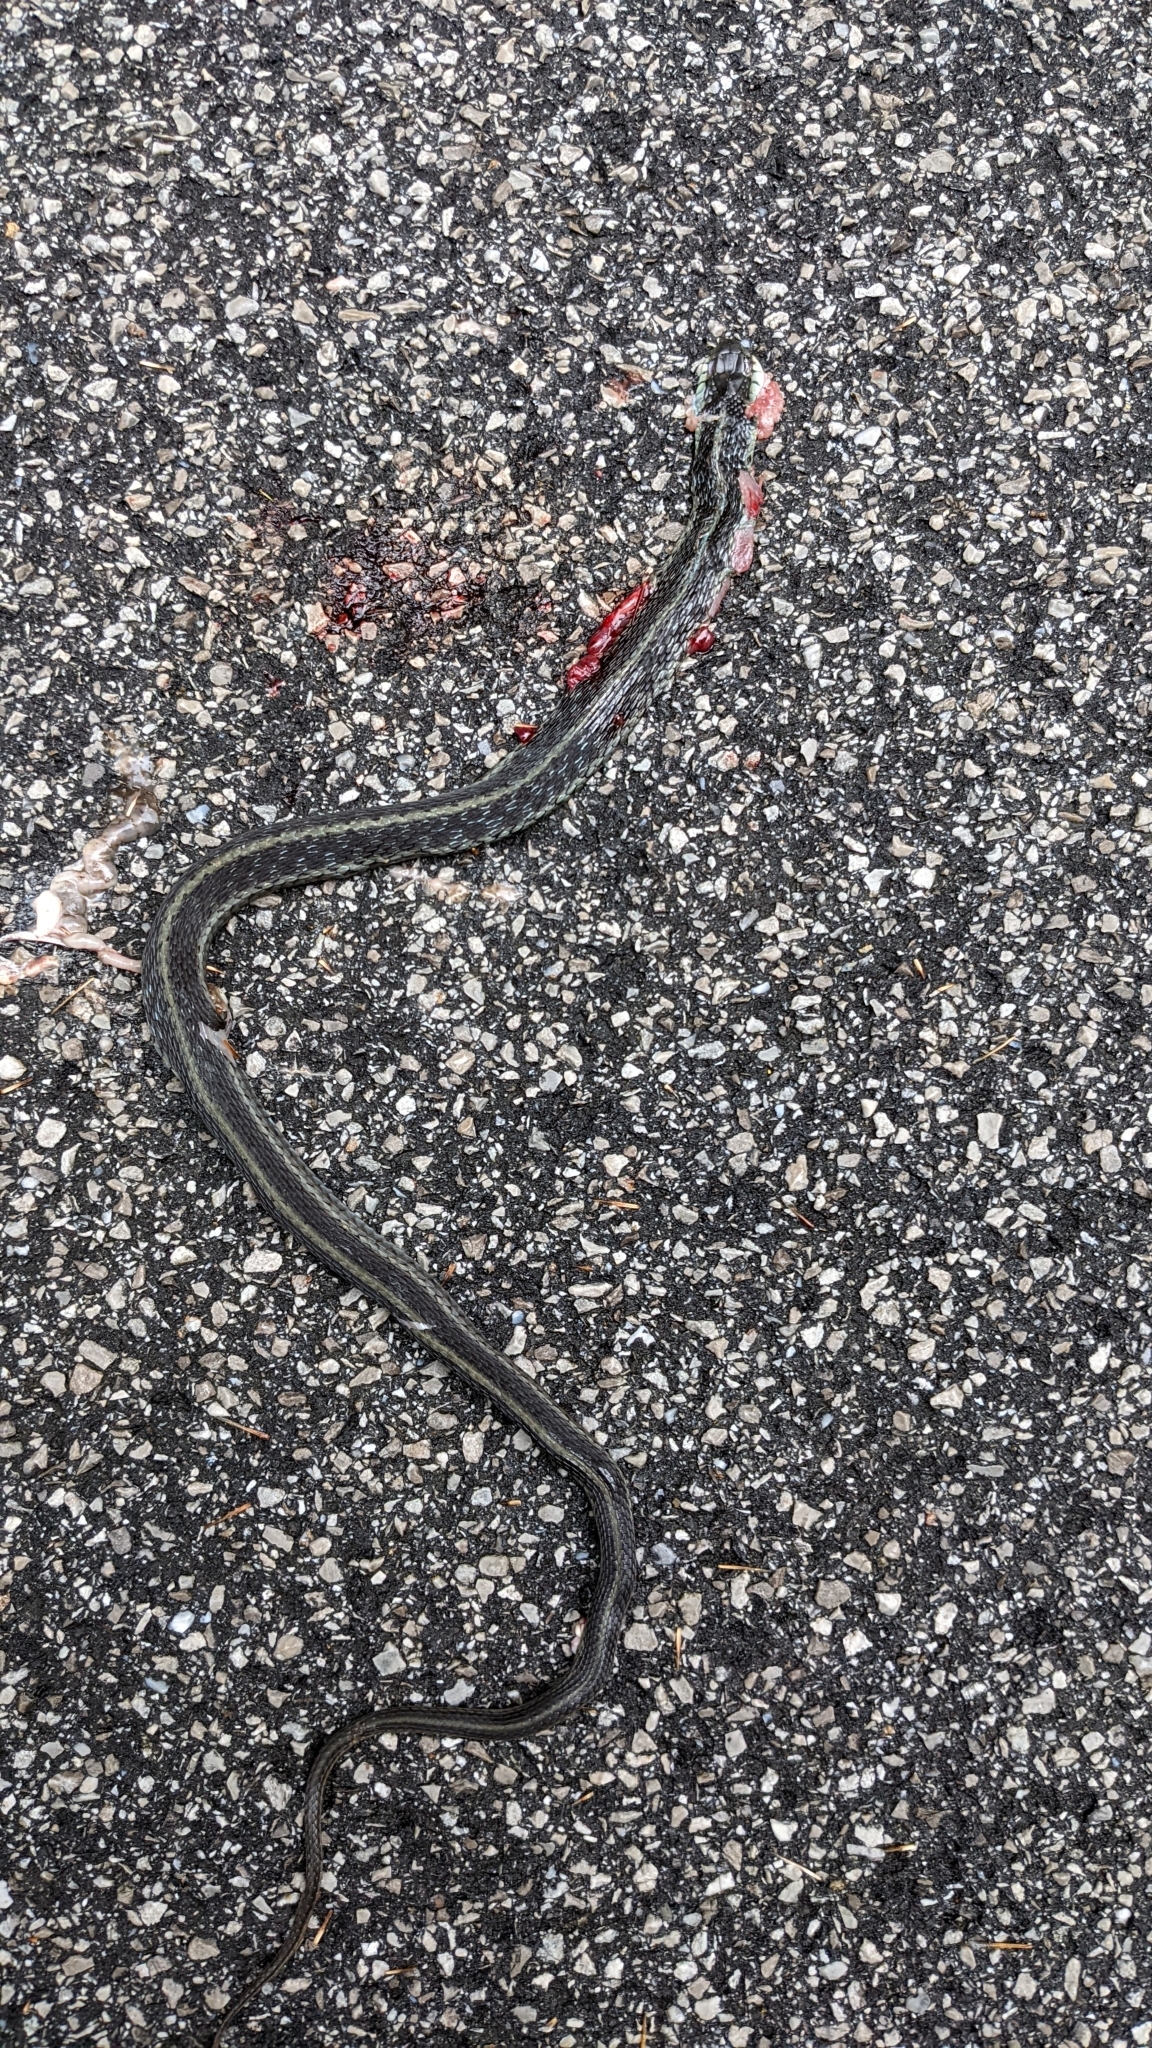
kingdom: Animalia
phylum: Chordata
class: Squamata
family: Colubridae
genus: Thamnophis
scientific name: Thamnophis sirtalis
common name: Common garter snake
